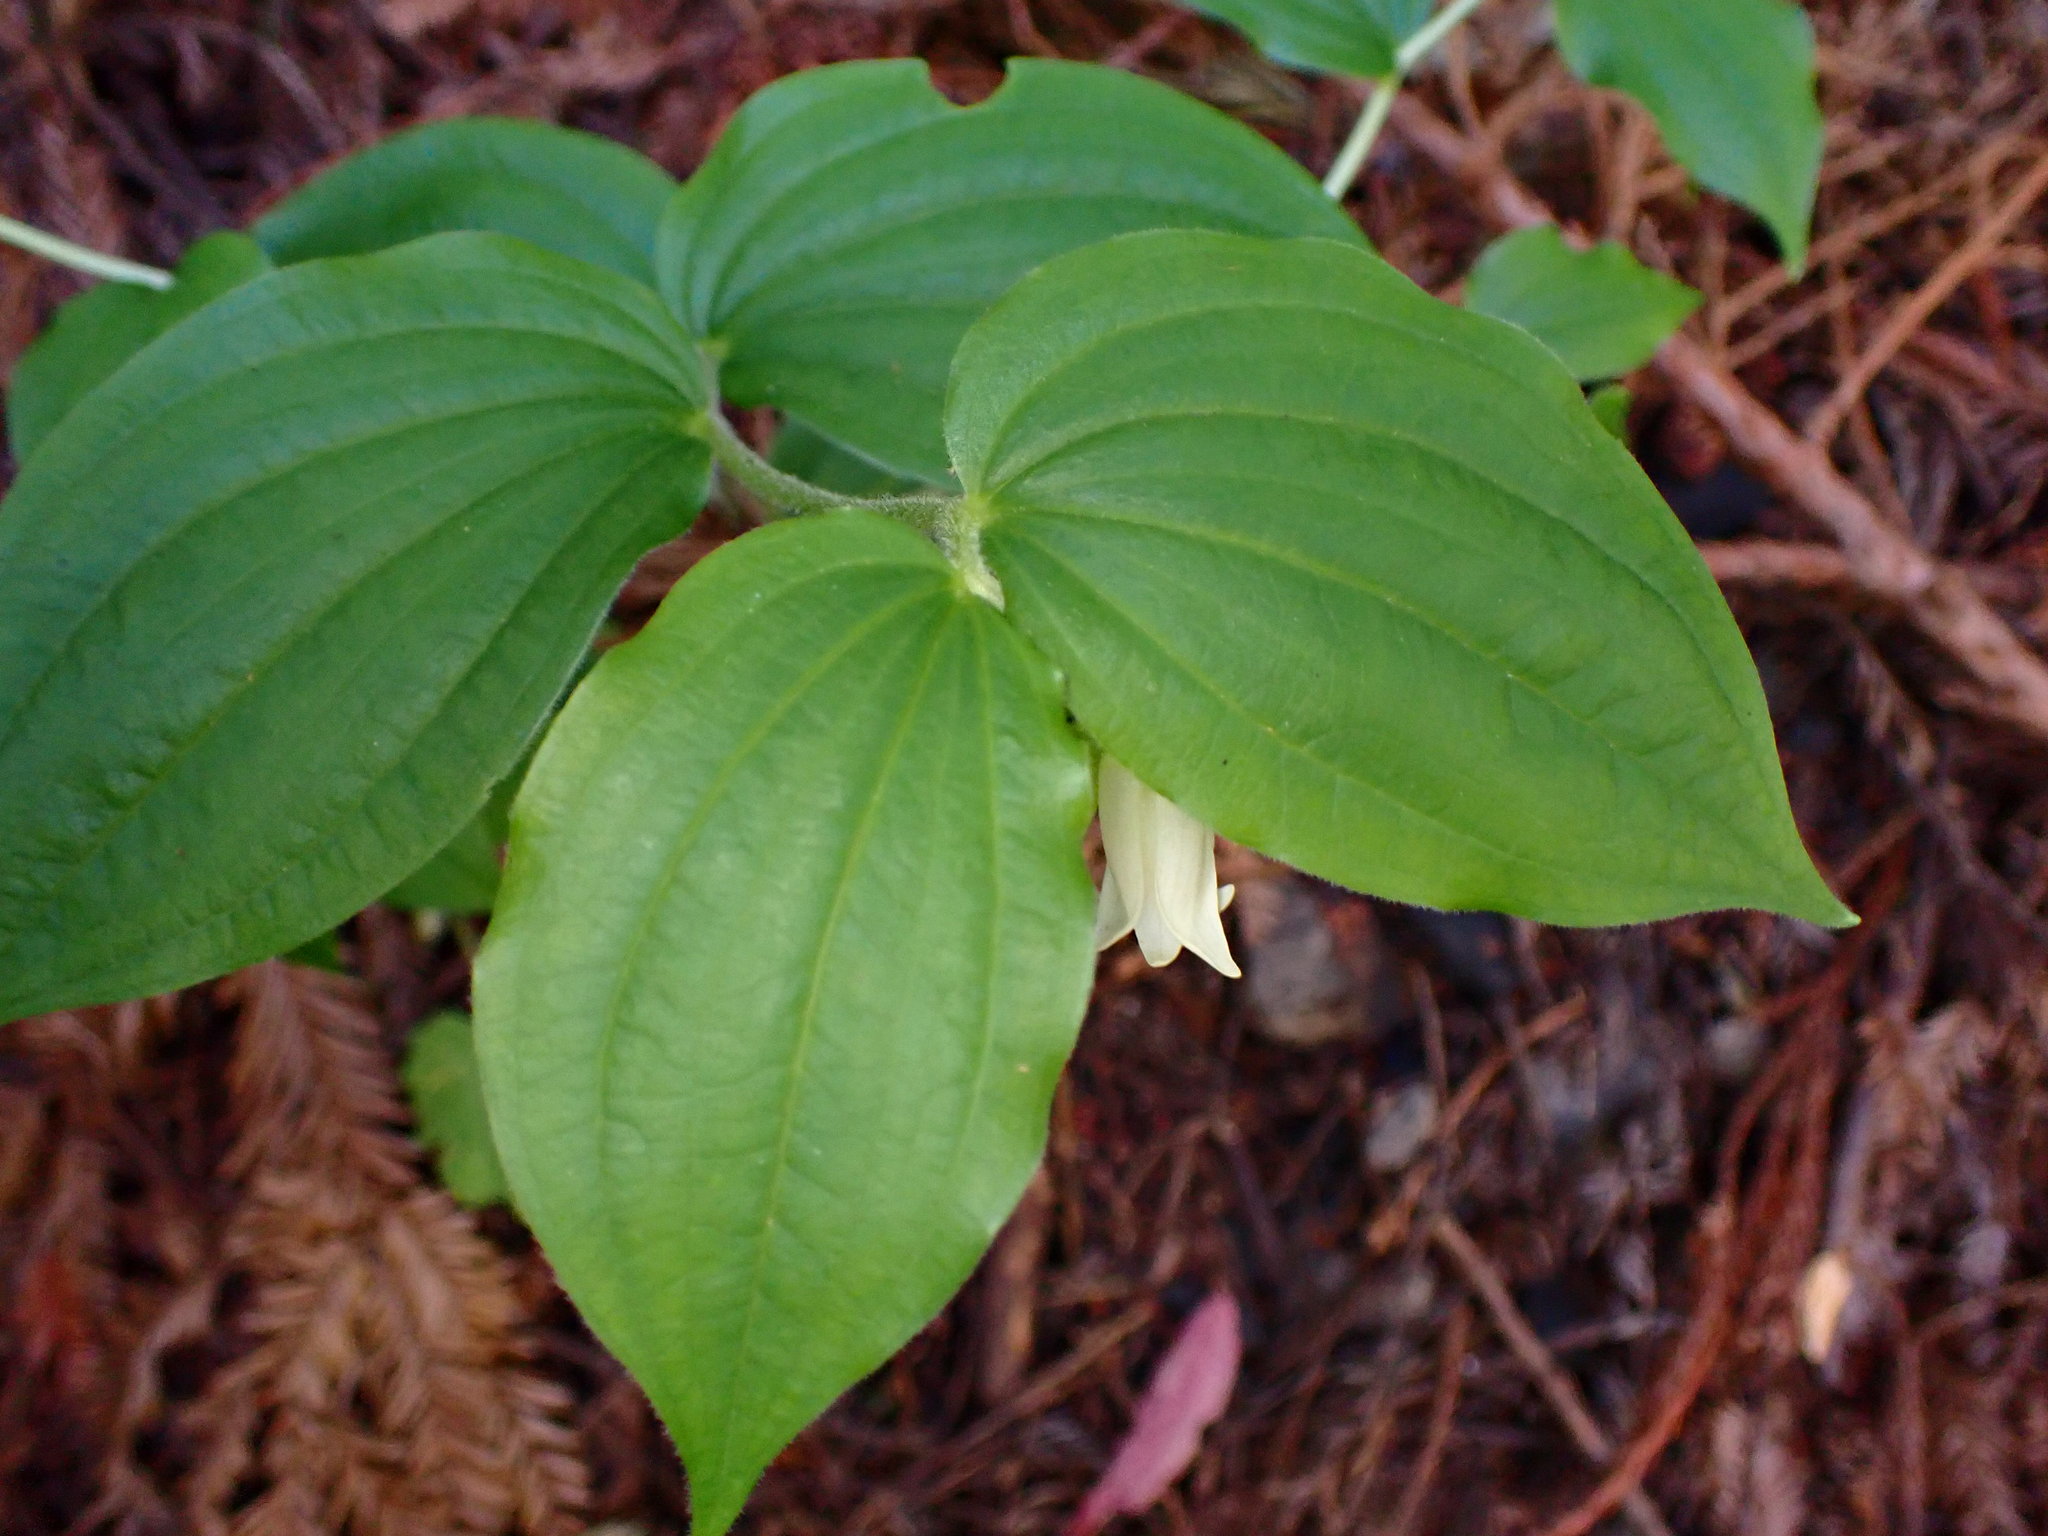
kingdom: Plantae
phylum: Tracheophyta
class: Liliopsida
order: Liliales
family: Liliaceae
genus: Prosartes
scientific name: Prosartes smithii
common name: Fairy-lantern
